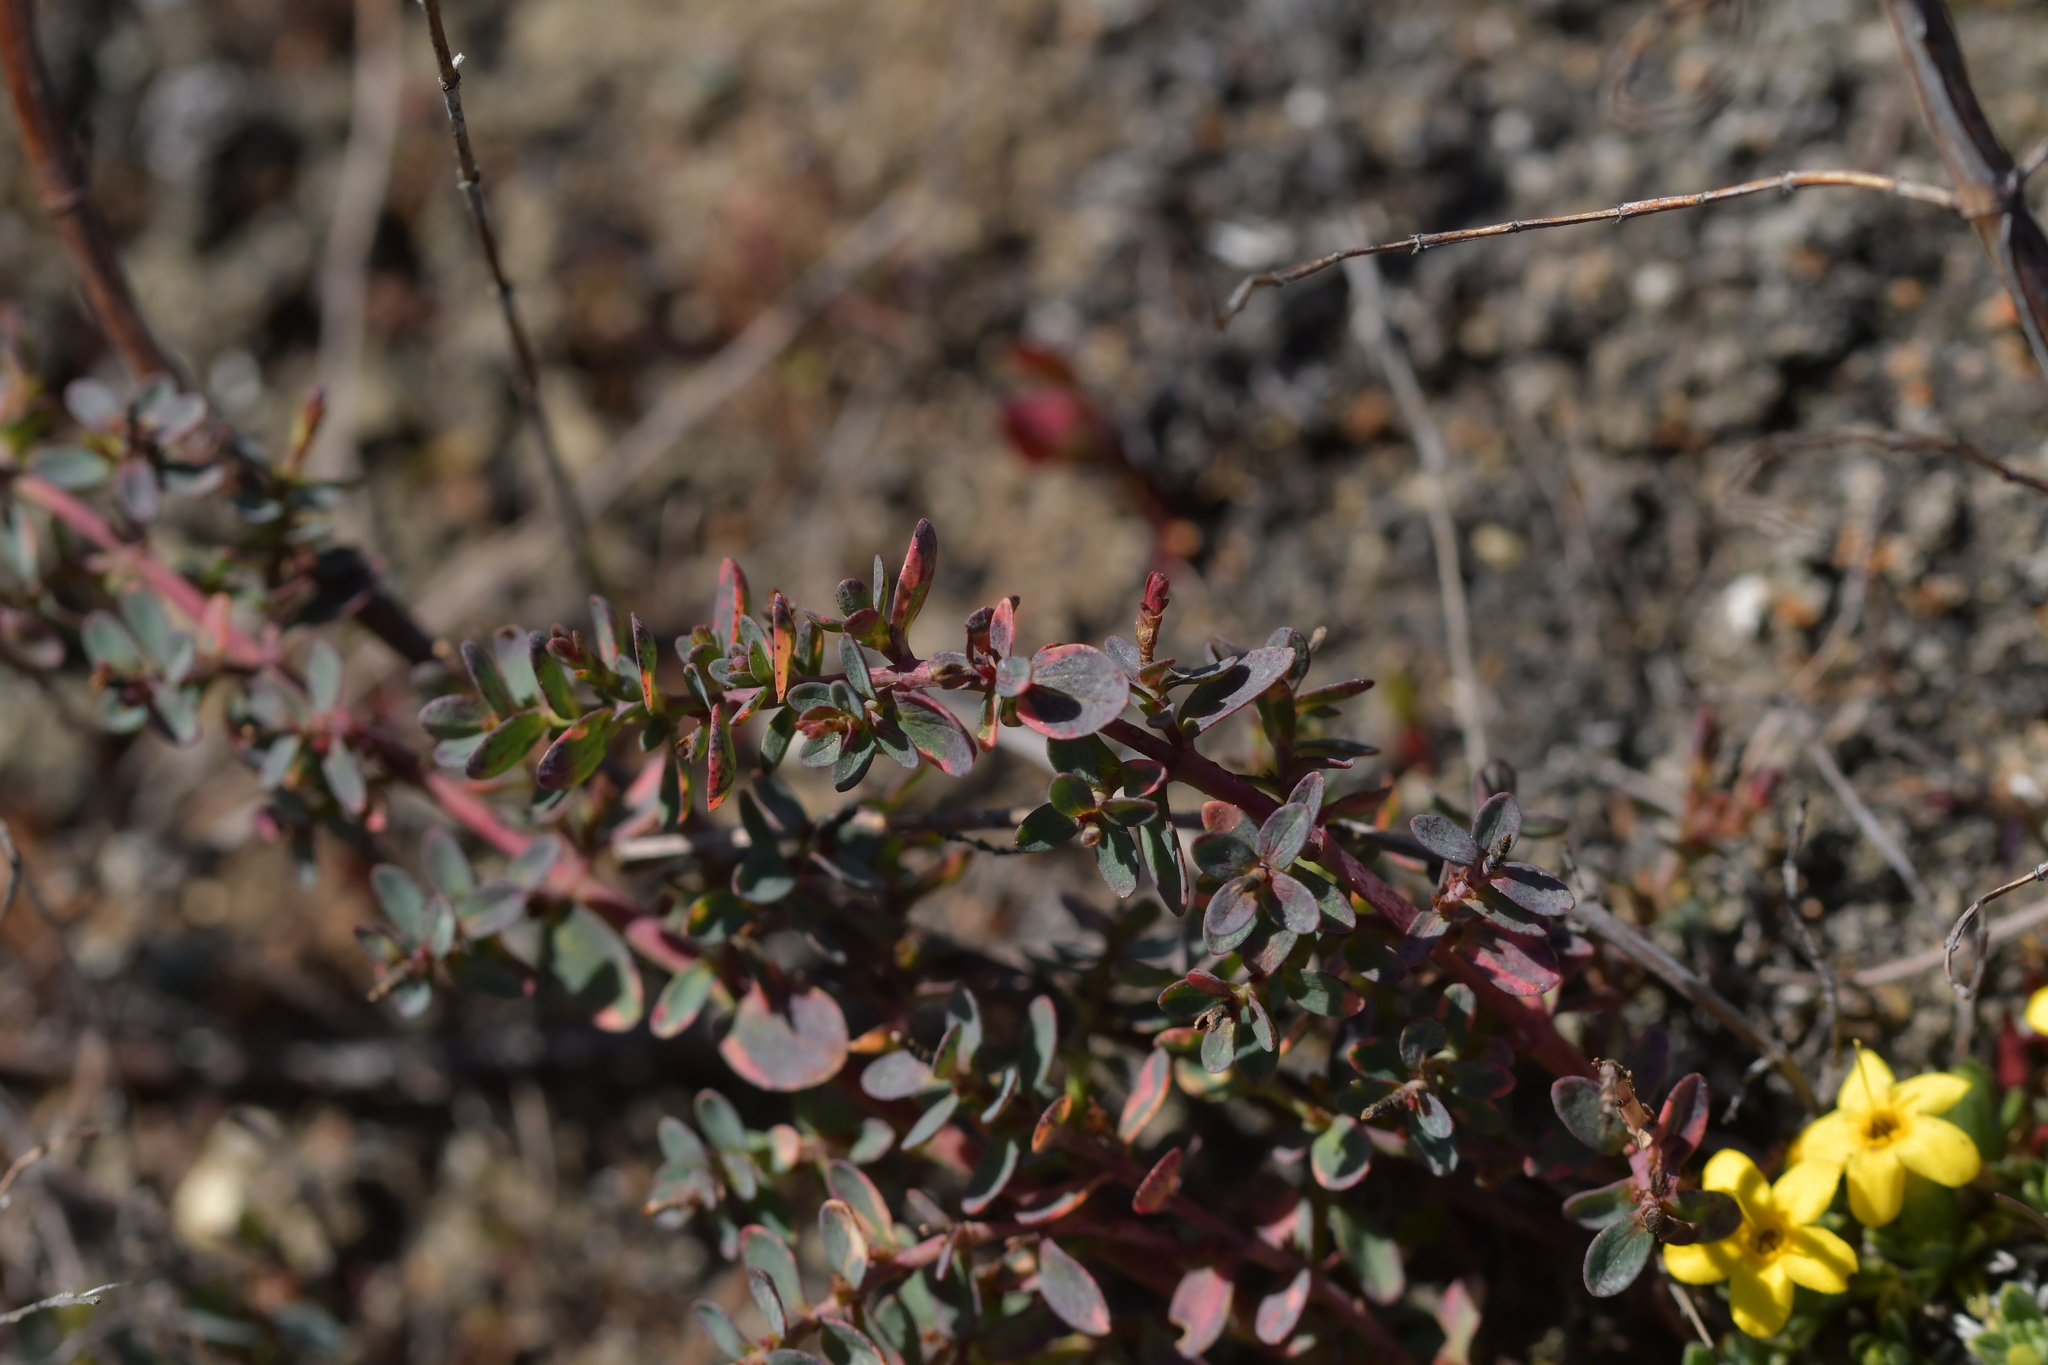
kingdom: Plantae
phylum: Tracheophyta
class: Magnoliopsida
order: Malpighiales
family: Hypericaceae
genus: Hypericum
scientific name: Hypericum perforatum
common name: Common st. johnswort
